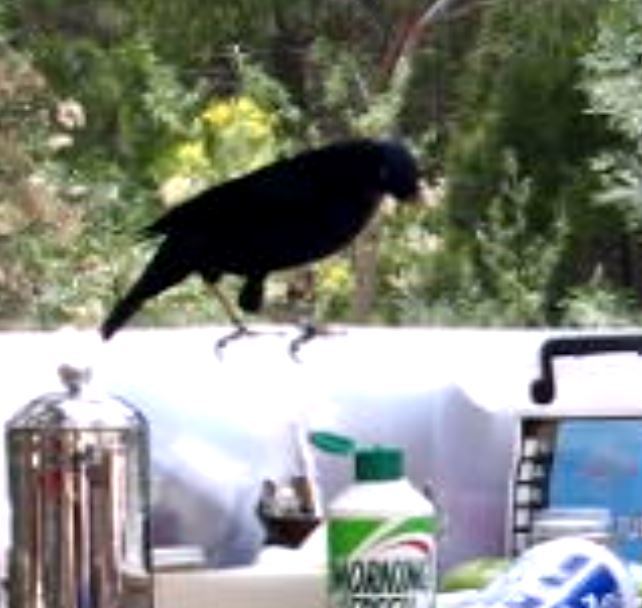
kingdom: Animalia
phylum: Chordata
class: Aves
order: Passeriformes
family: Ptilonorhynchidae
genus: Ptilonorhynchus
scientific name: Ptilonorhynchus violaceus
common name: Satin bowerbird
